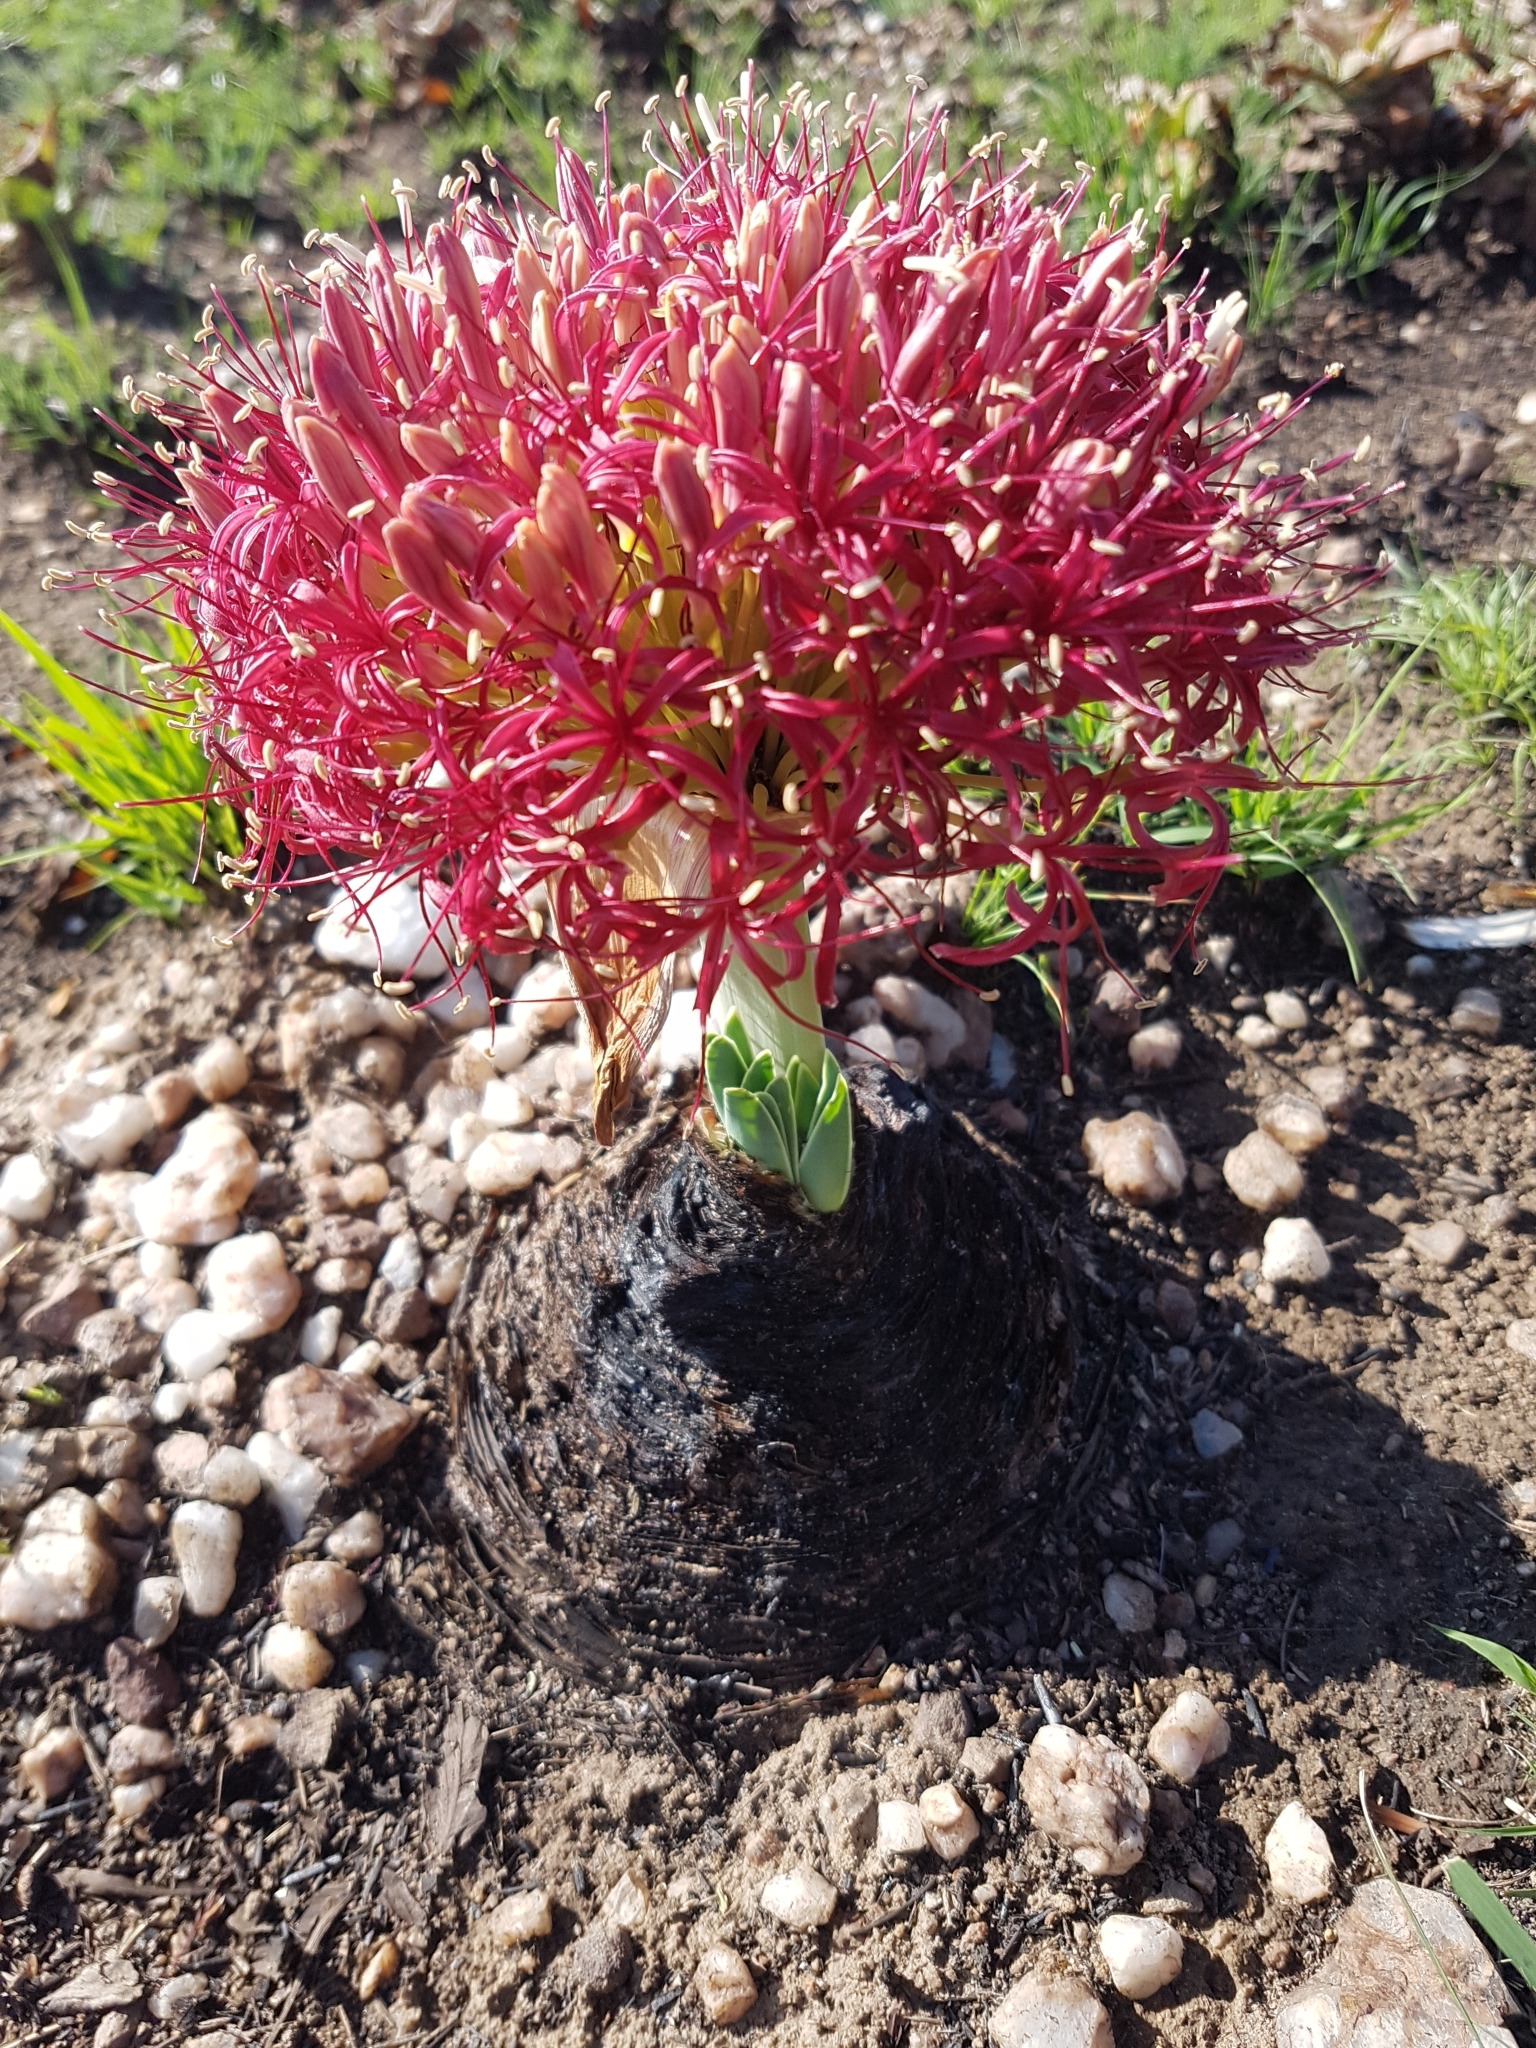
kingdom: Plantae
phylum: Tracheophyta
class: Liliopsida
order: Asparagales
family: Amaryllidaceae
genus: Boophone
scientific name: Boophone disticha
